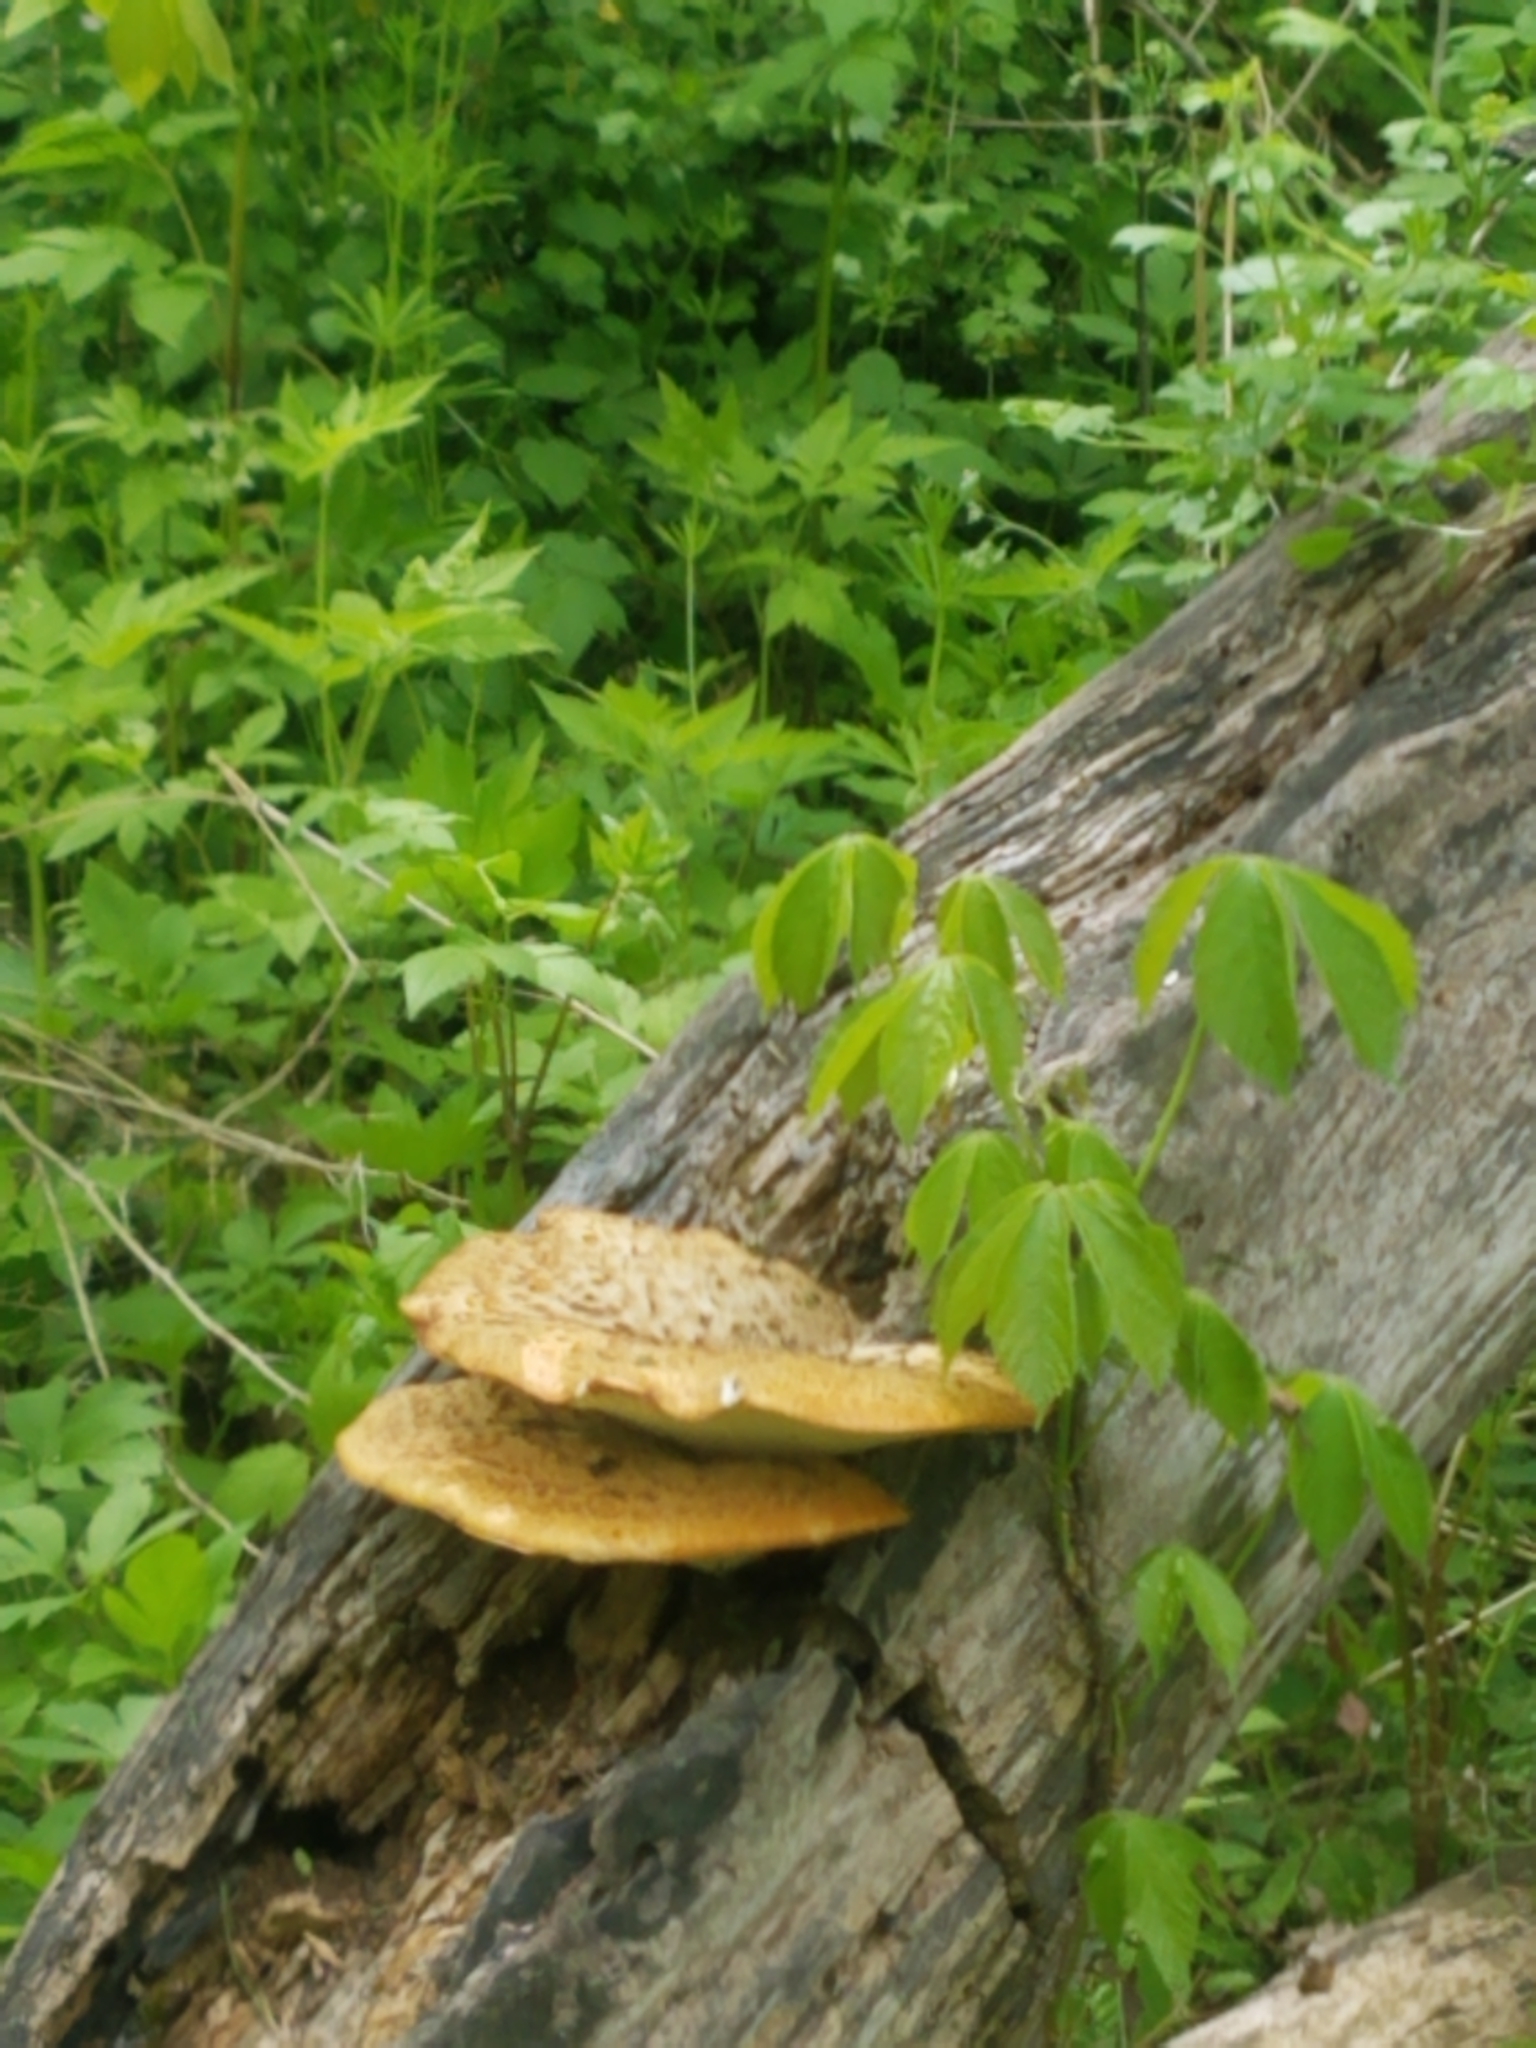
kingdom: Fungi
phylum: Basidiomycota
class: Agaricomycetes
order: Polyporales
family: Polyporaceae
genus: Cerioporus
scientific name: Cerioporus squamosus
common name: Dryad's saddle
